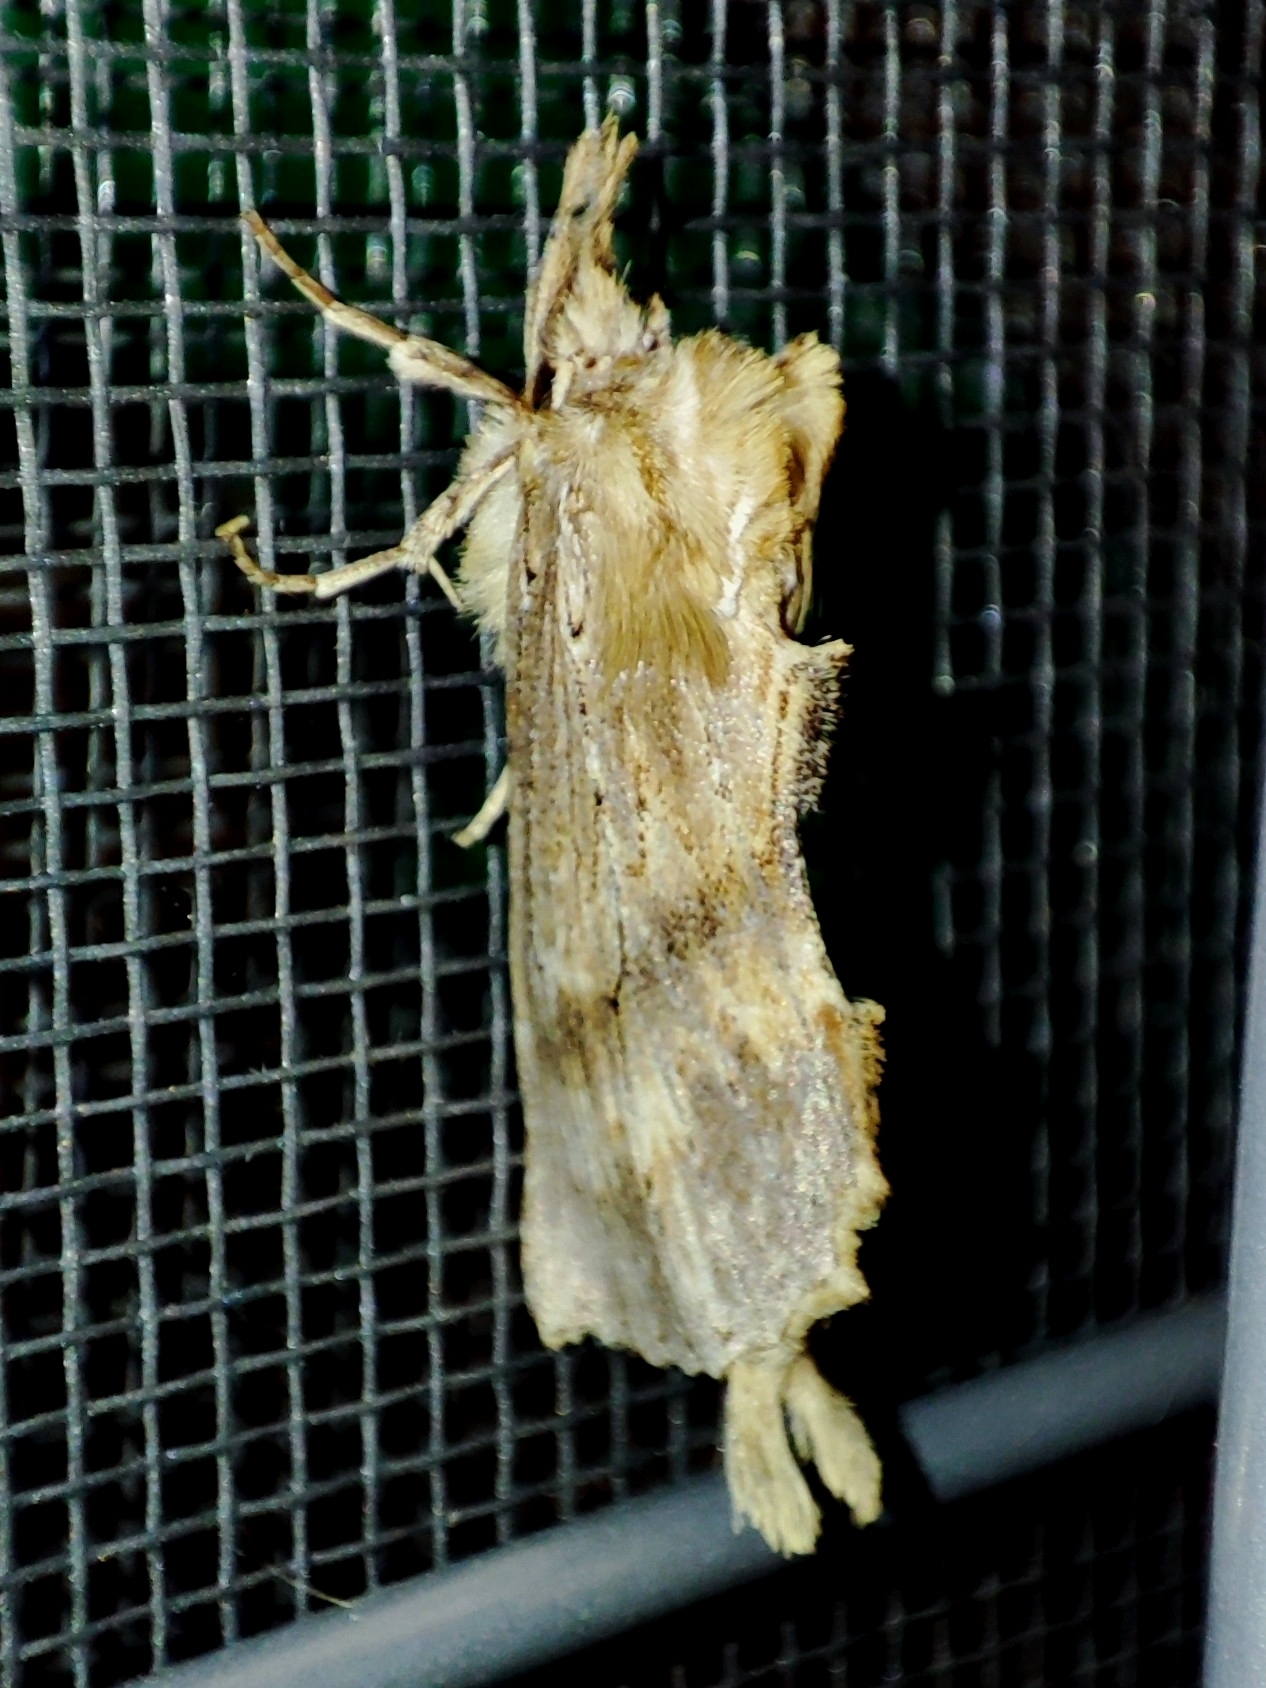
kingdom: Animalia
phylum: Arthropoda
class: Insecta
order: Lepidoptera
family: Notodontidae
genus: Pterostoma
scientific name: Pterostoma palpina
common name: Pale prominent
